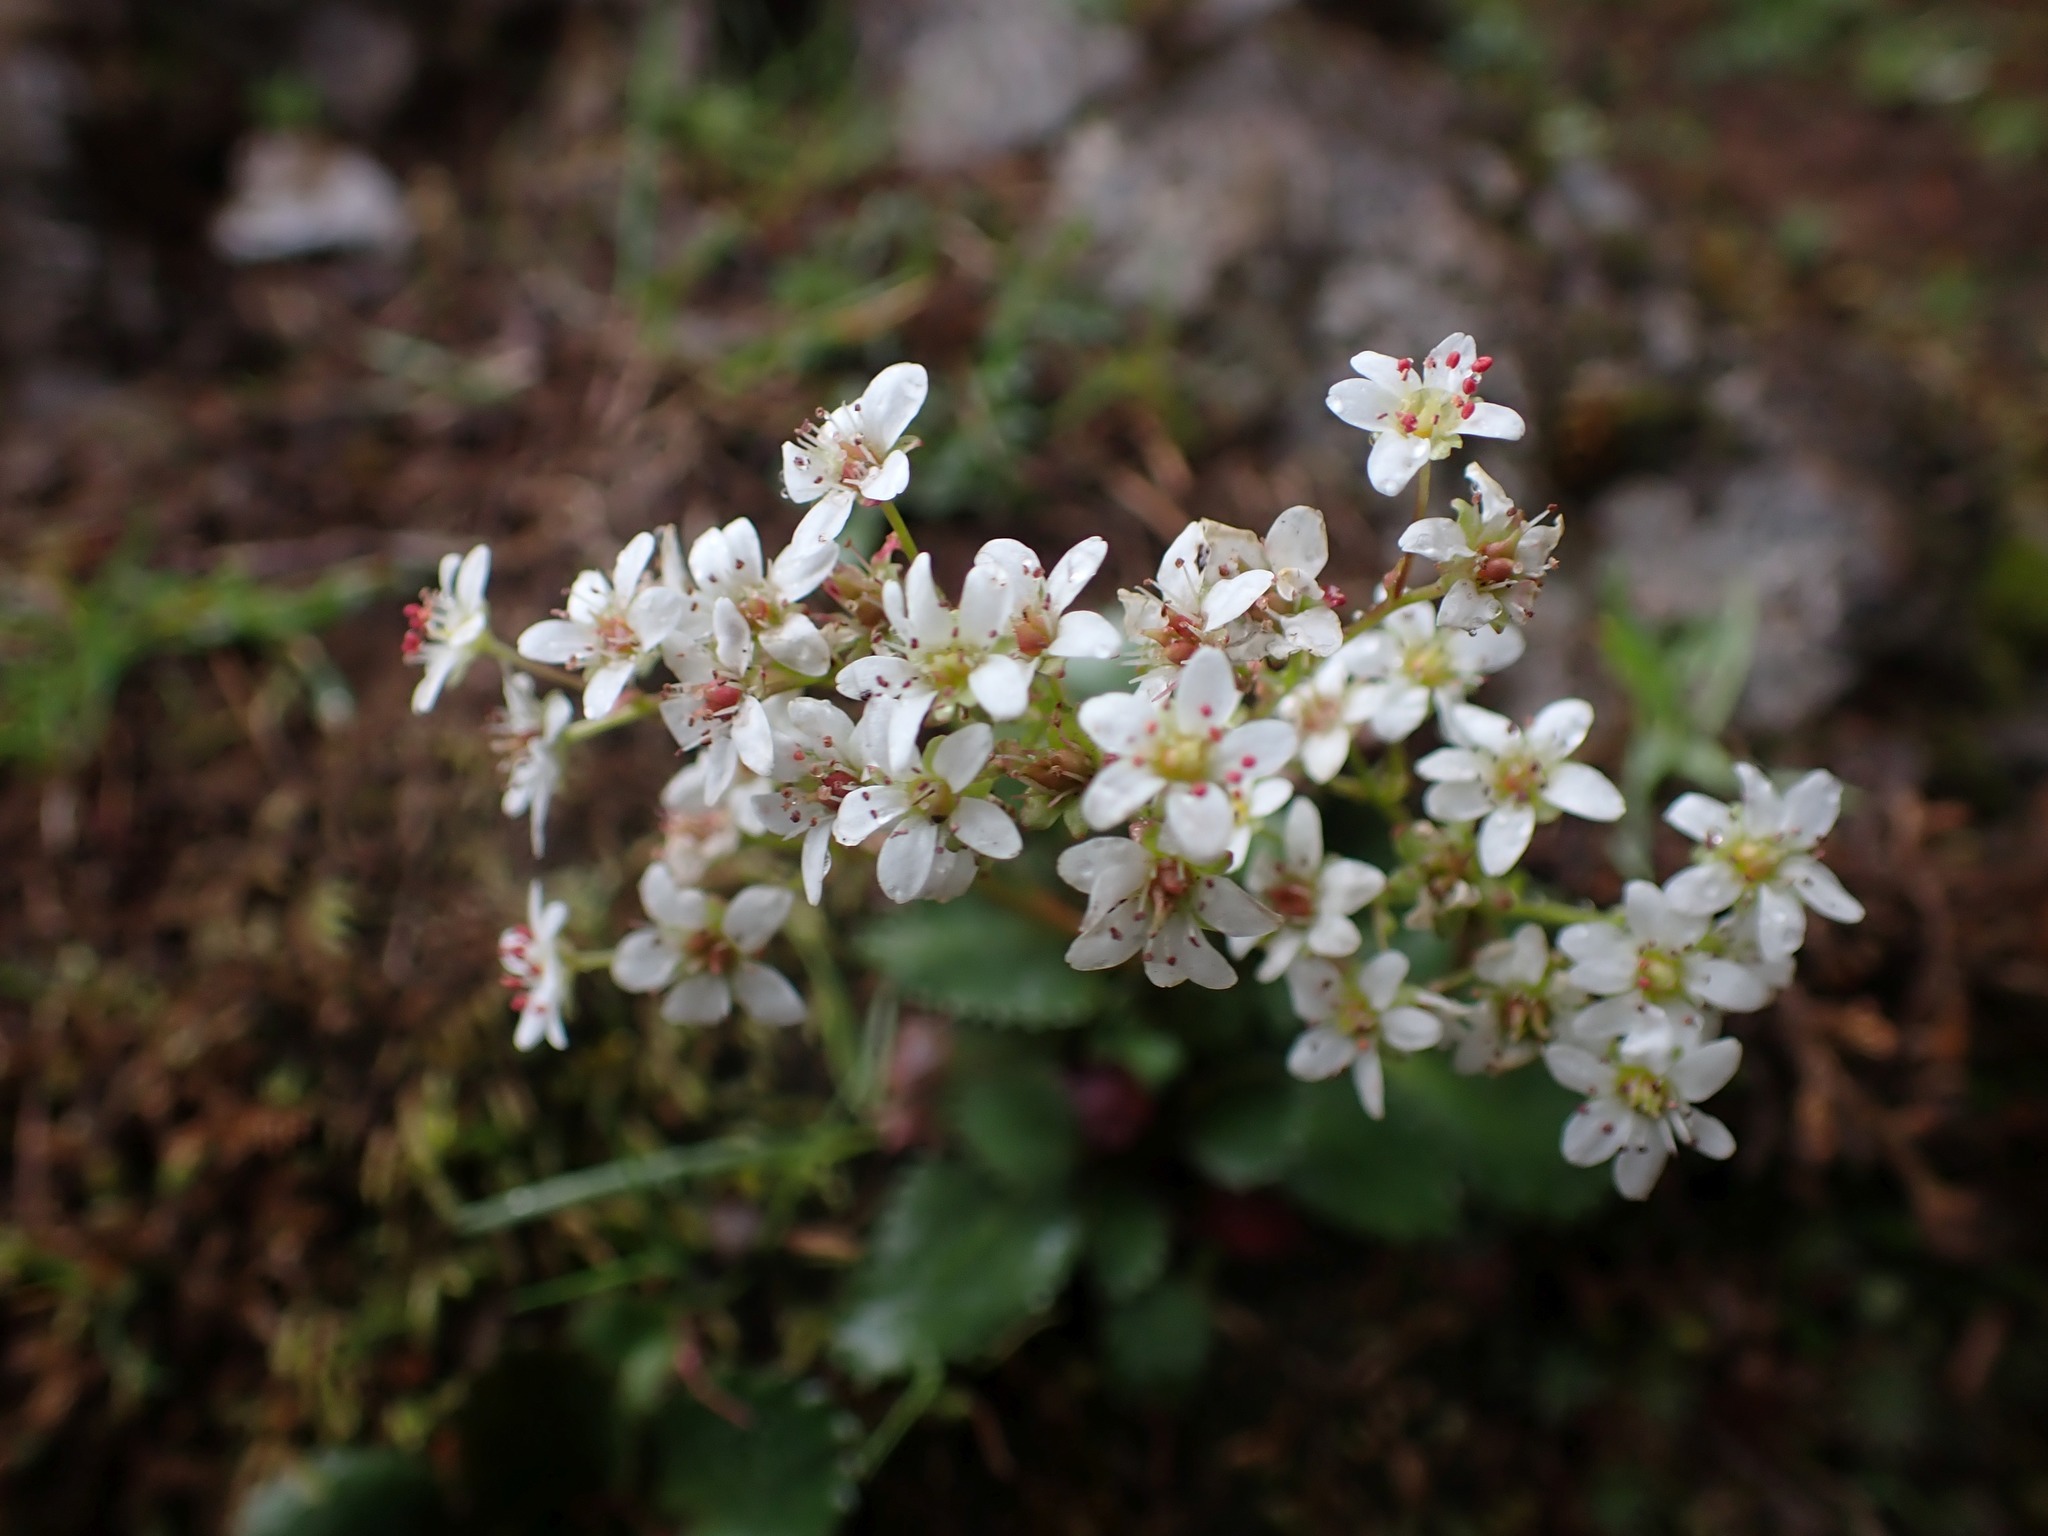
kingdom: Plantae
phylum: Tracheophyta
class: Magnoliopsida
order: Saxifragales
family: Saxifragaceae
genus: Micranthes
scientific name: Micranthes rufidula
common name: Rustyhair saxifrage
